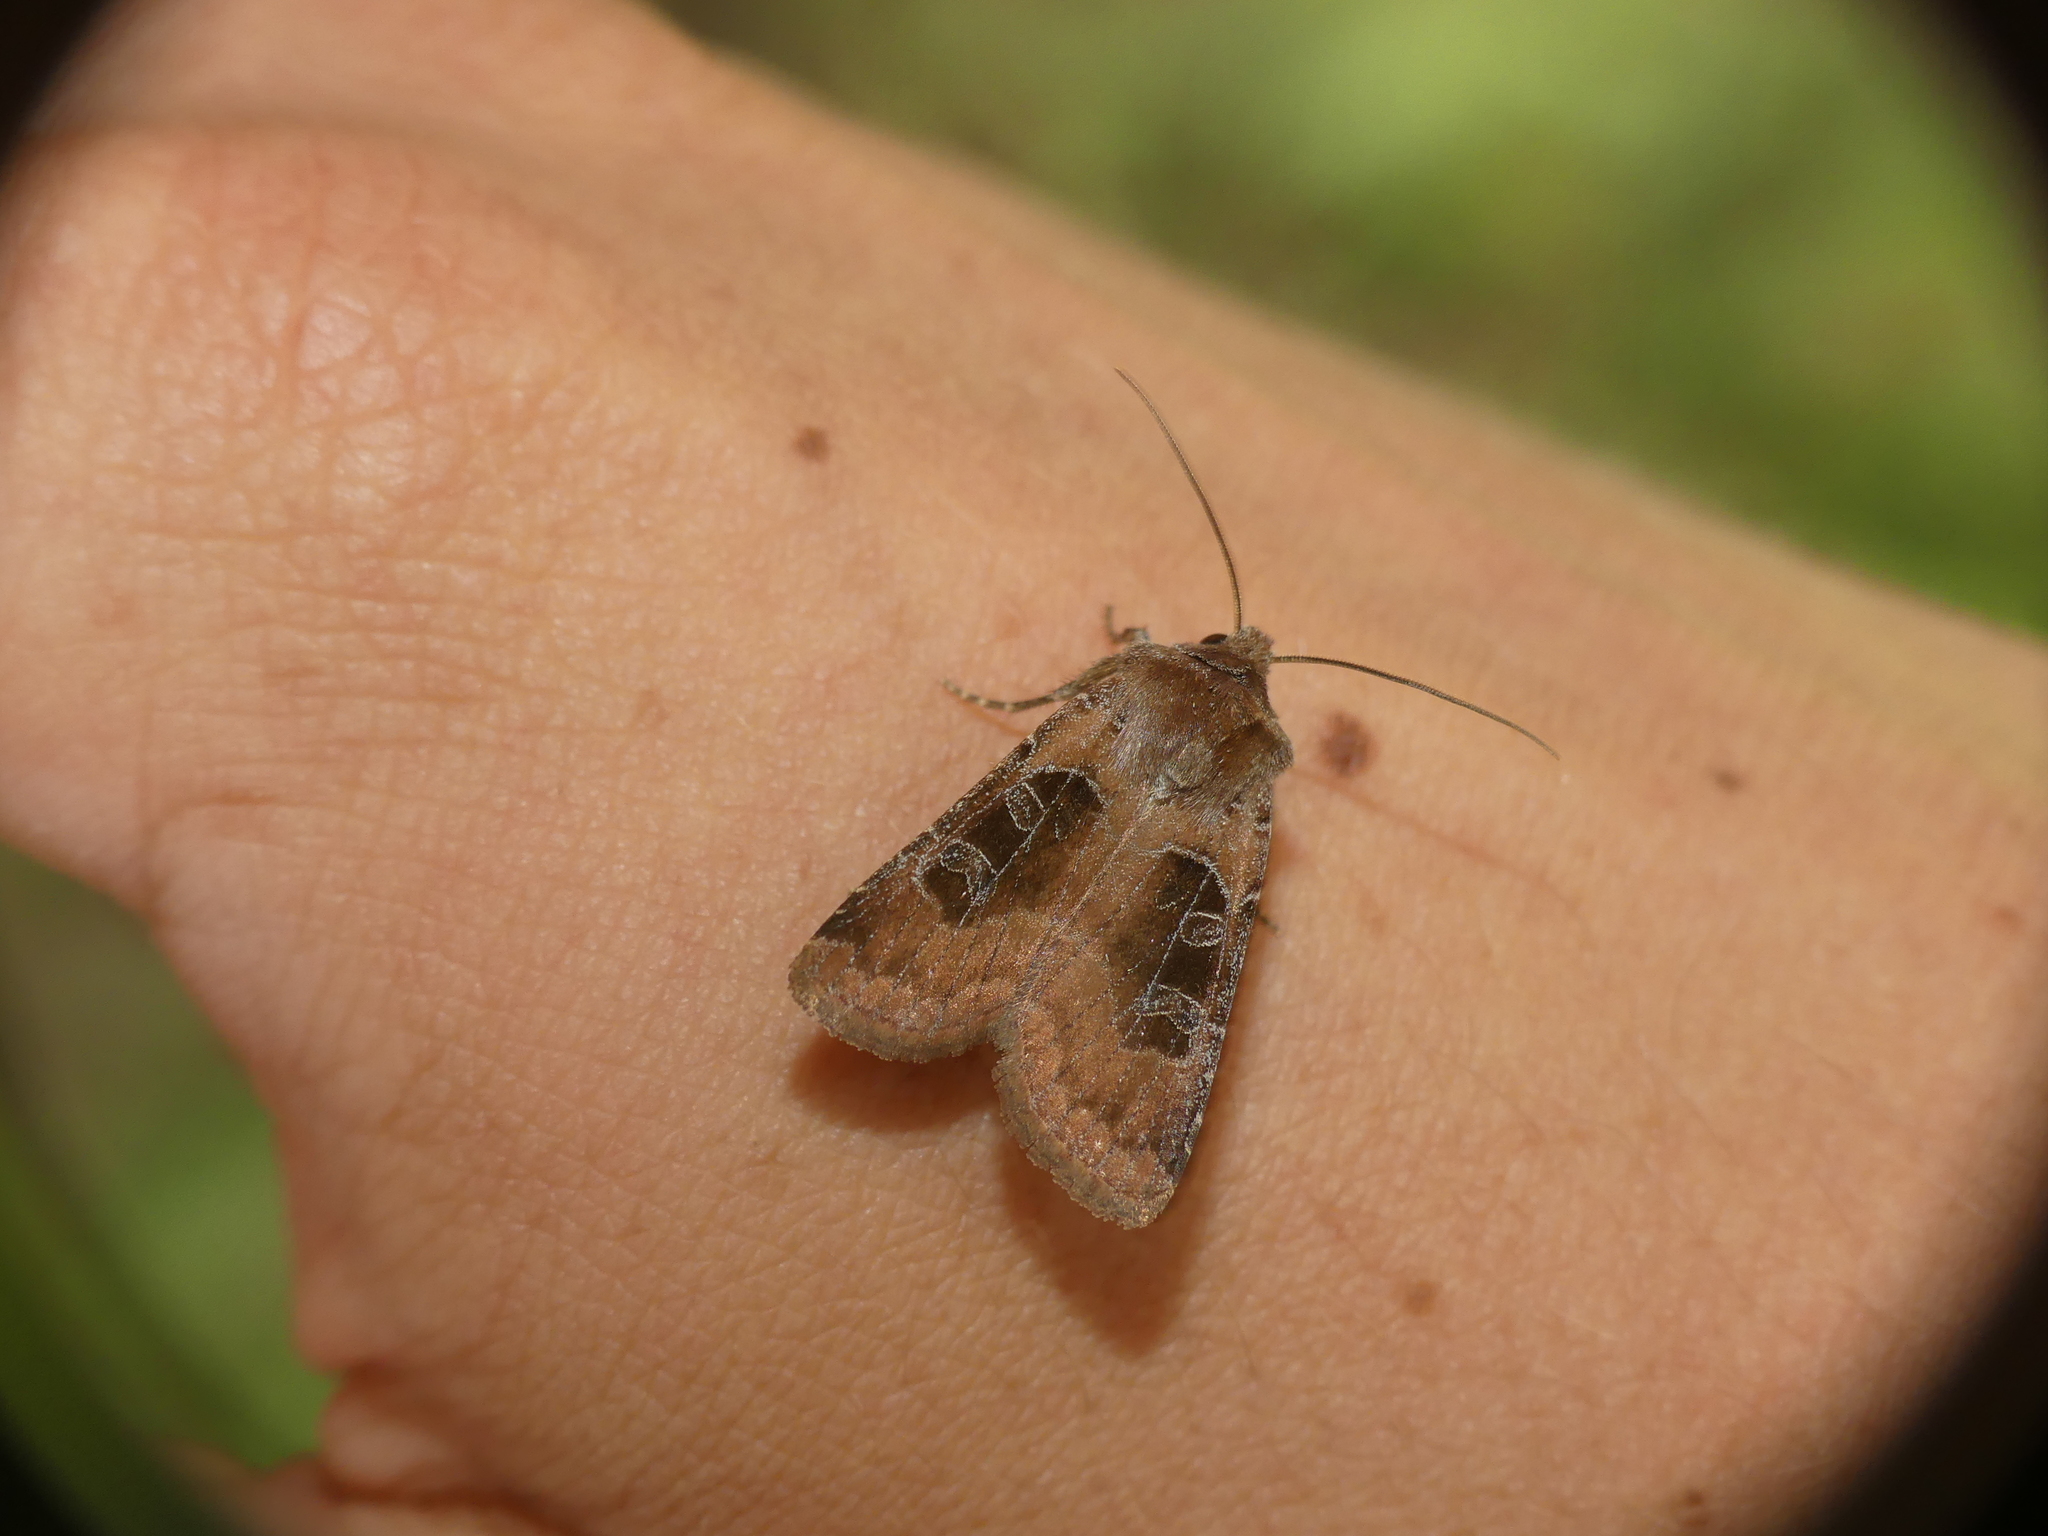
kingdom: Animalia
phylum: Arthropoda
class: Insecta
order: Lepidoptera
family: Noctuidae
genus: Chersotis
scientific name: Chersotis cuprea
